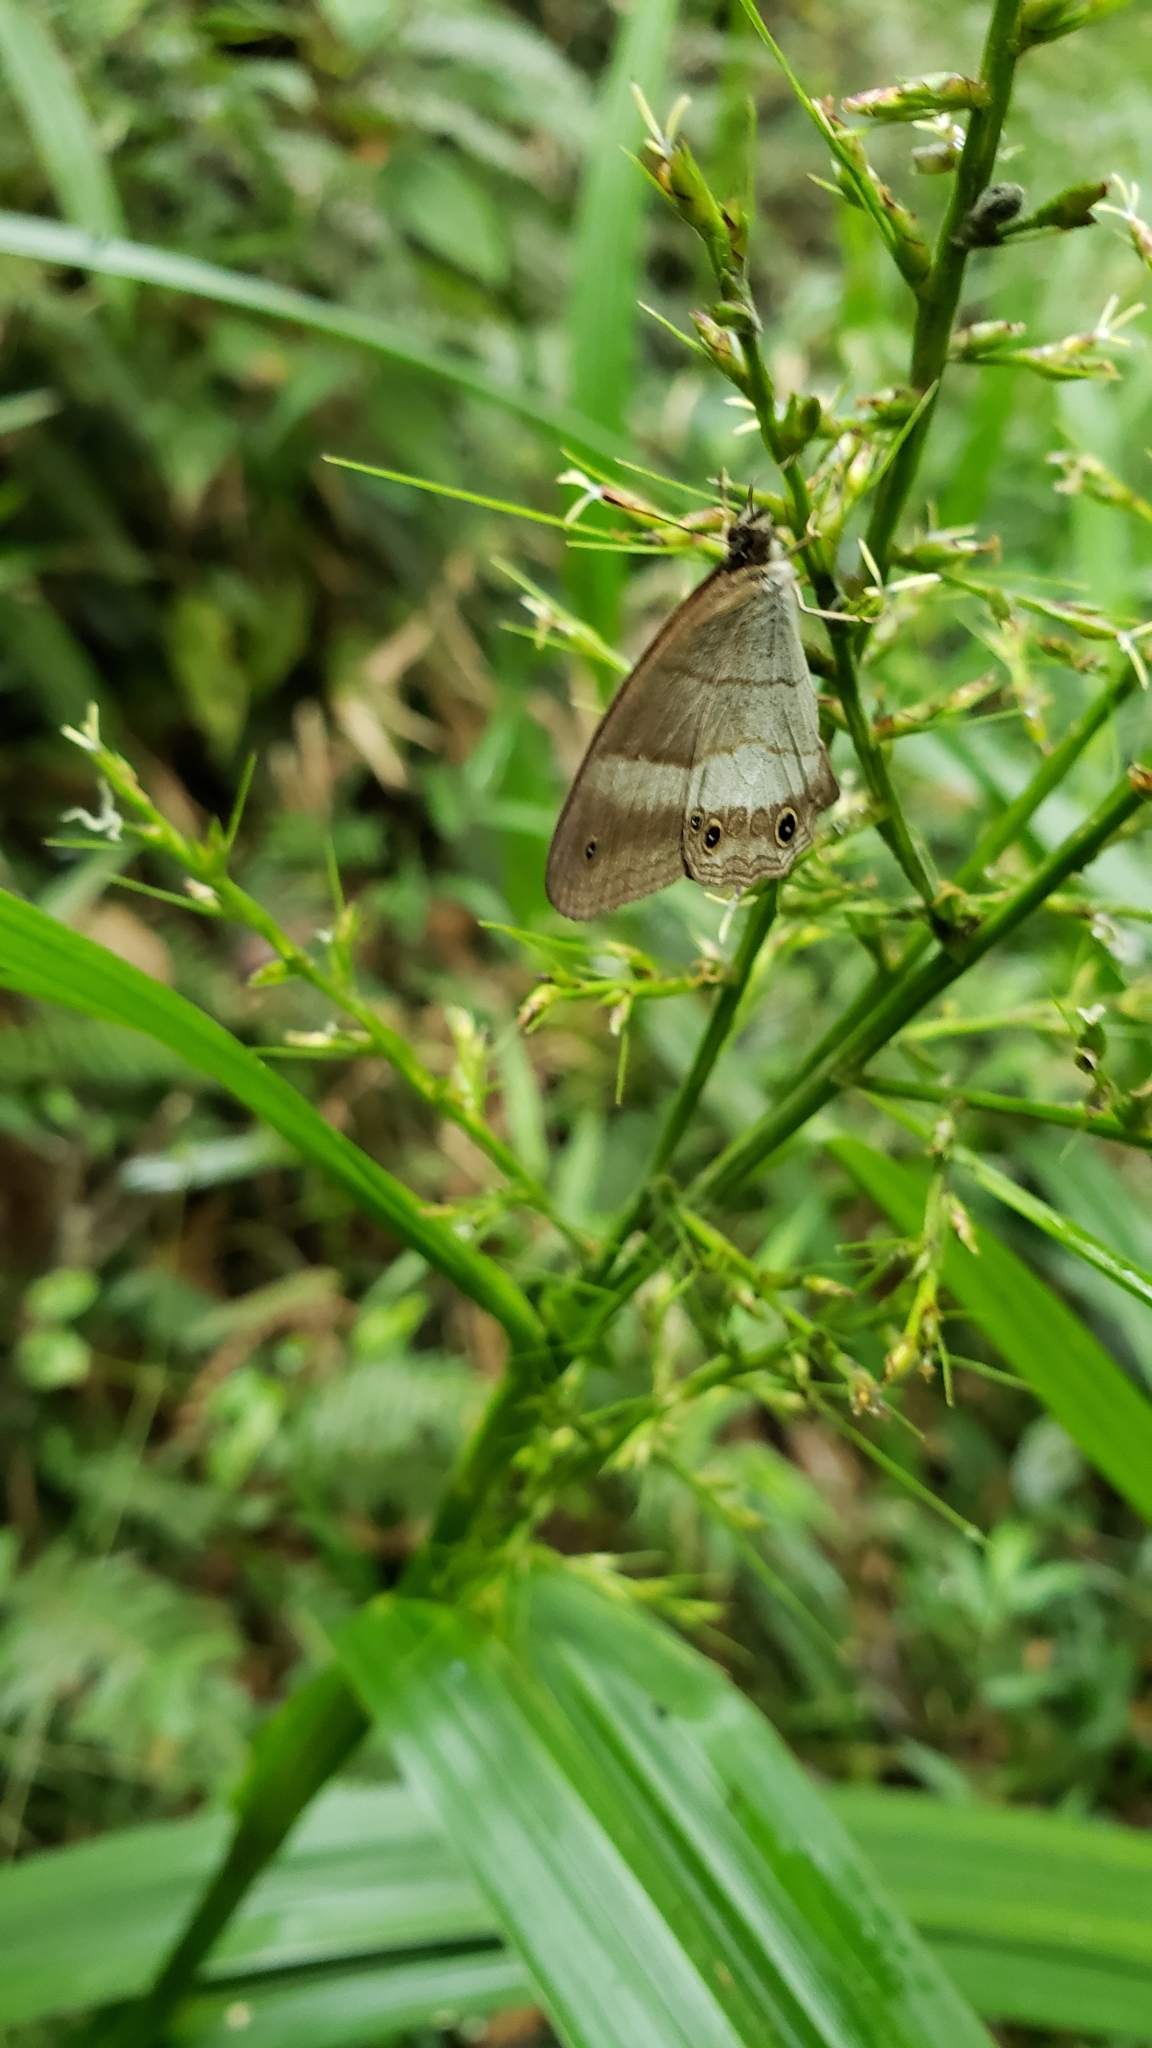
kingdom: Animalia
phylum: Arthropoda
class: Insecta
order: Lepidoptera
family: Nymphalidae
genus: Euptychoides
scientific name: Euptychoides saturnus
